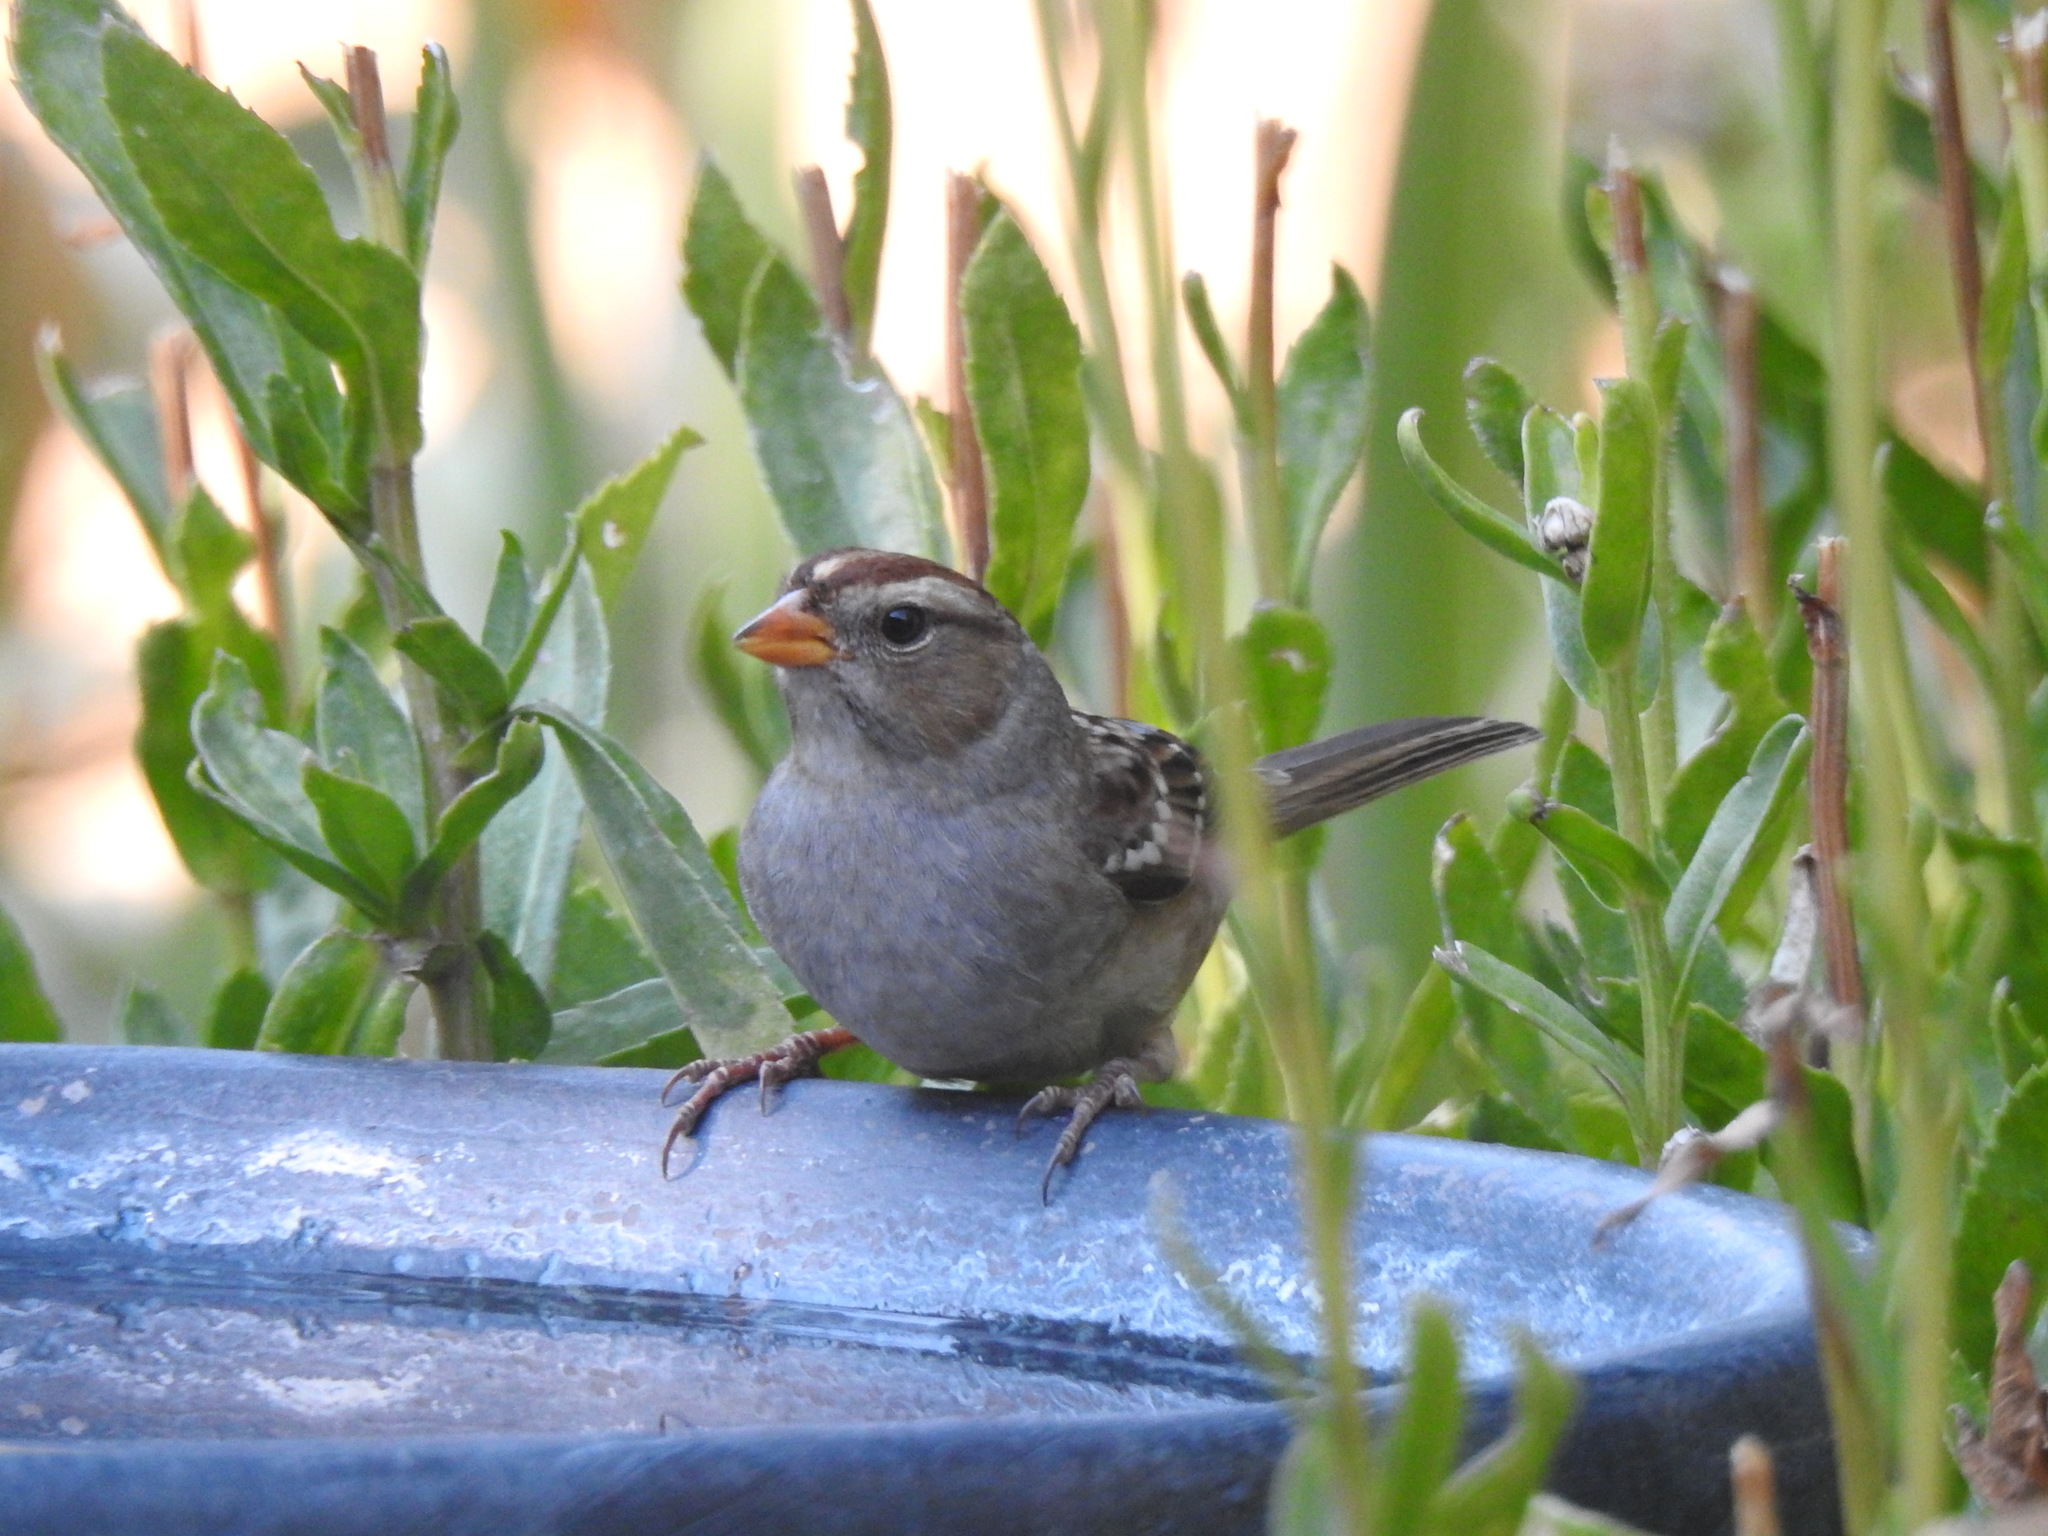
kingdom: Animalia
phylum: Chordata
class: Aves
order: Passeriformes
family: Passerellidae
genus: Zonotrichia
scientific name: Zonotrichia leucophrys
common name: White-crowned sparrow
